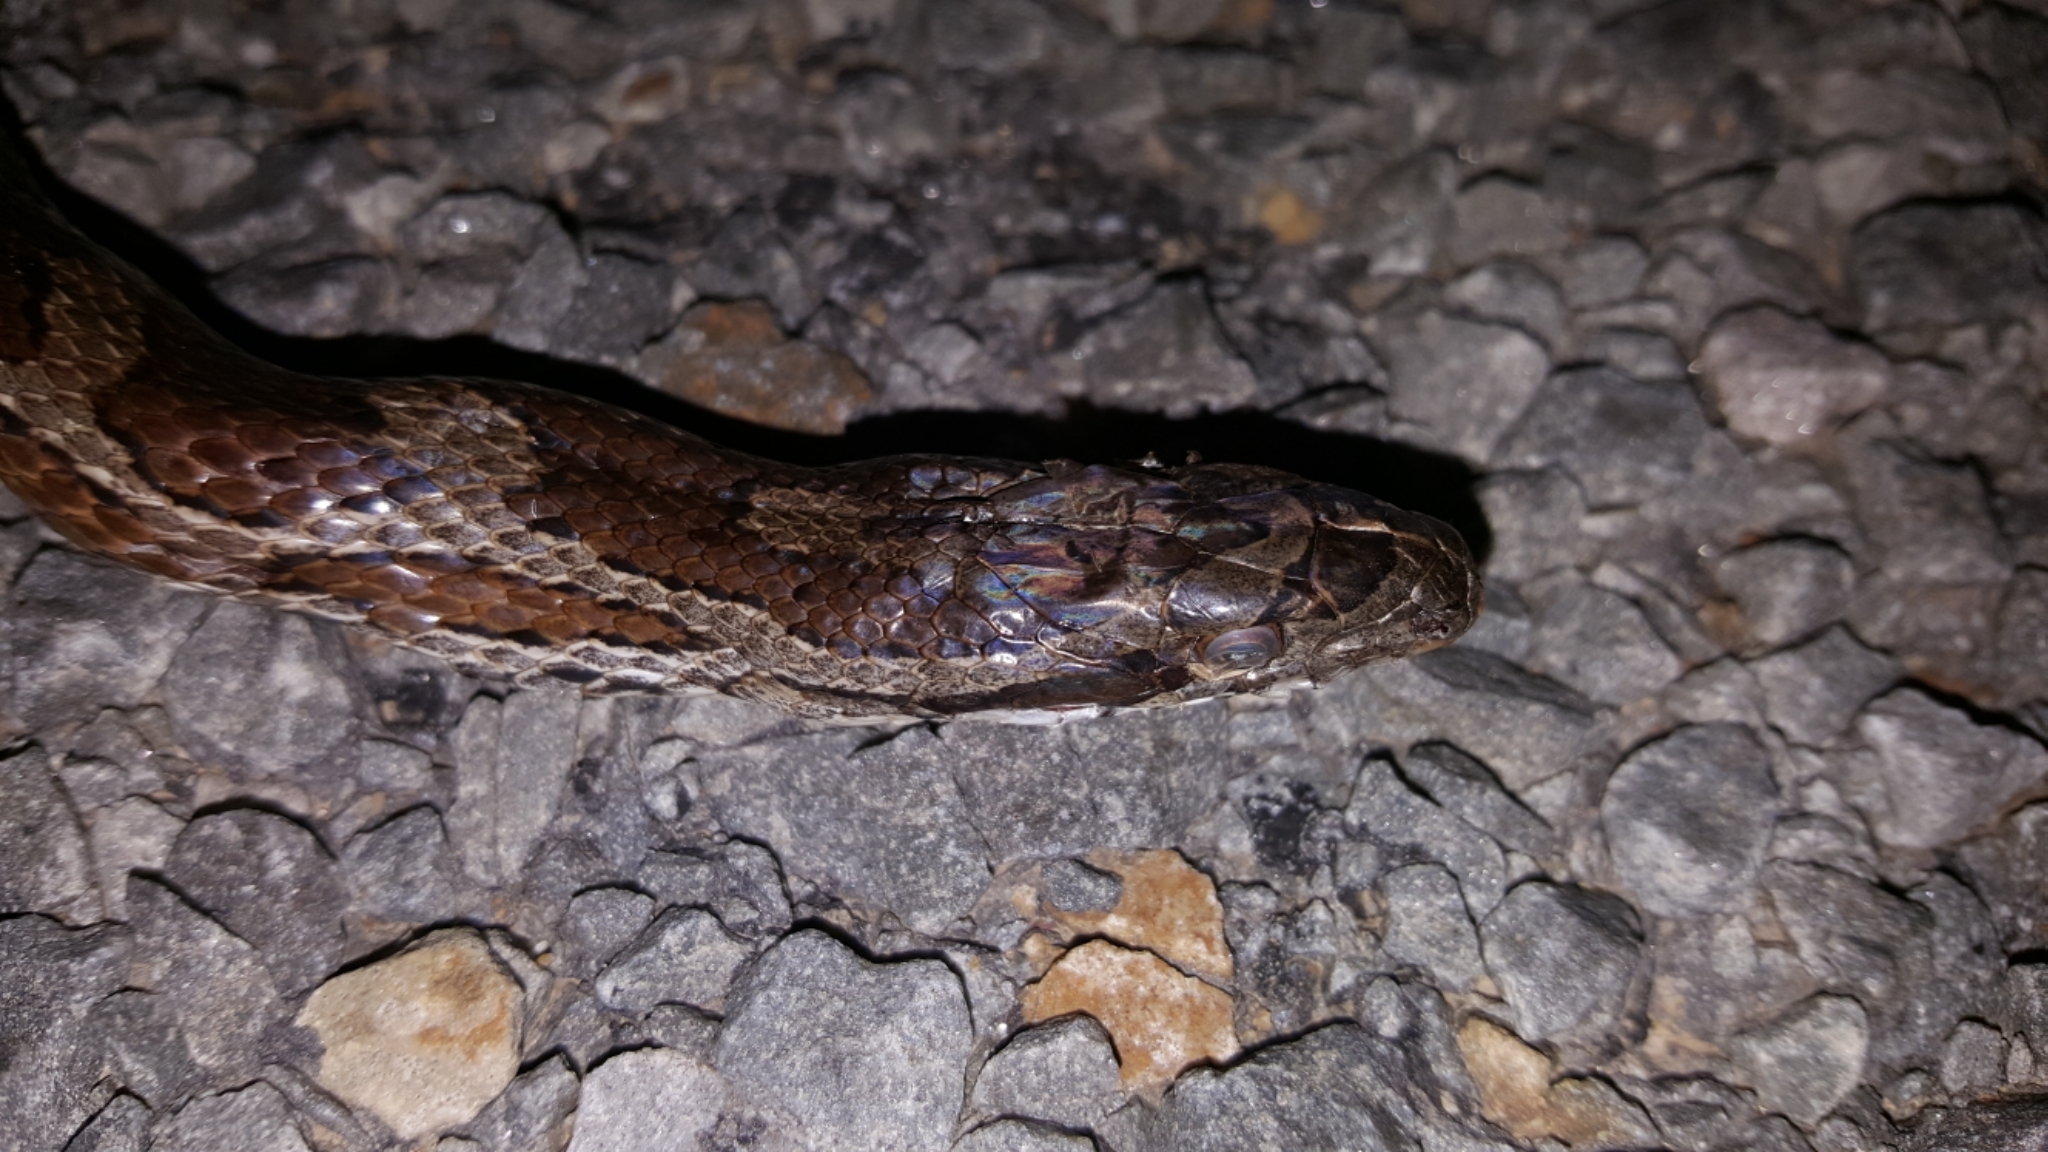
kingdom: Animalia
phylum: Chordata
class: Squamata
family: Colubridae
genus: Pantherophis
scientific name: Pantherophis emoryi
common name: Great plains rat snake
